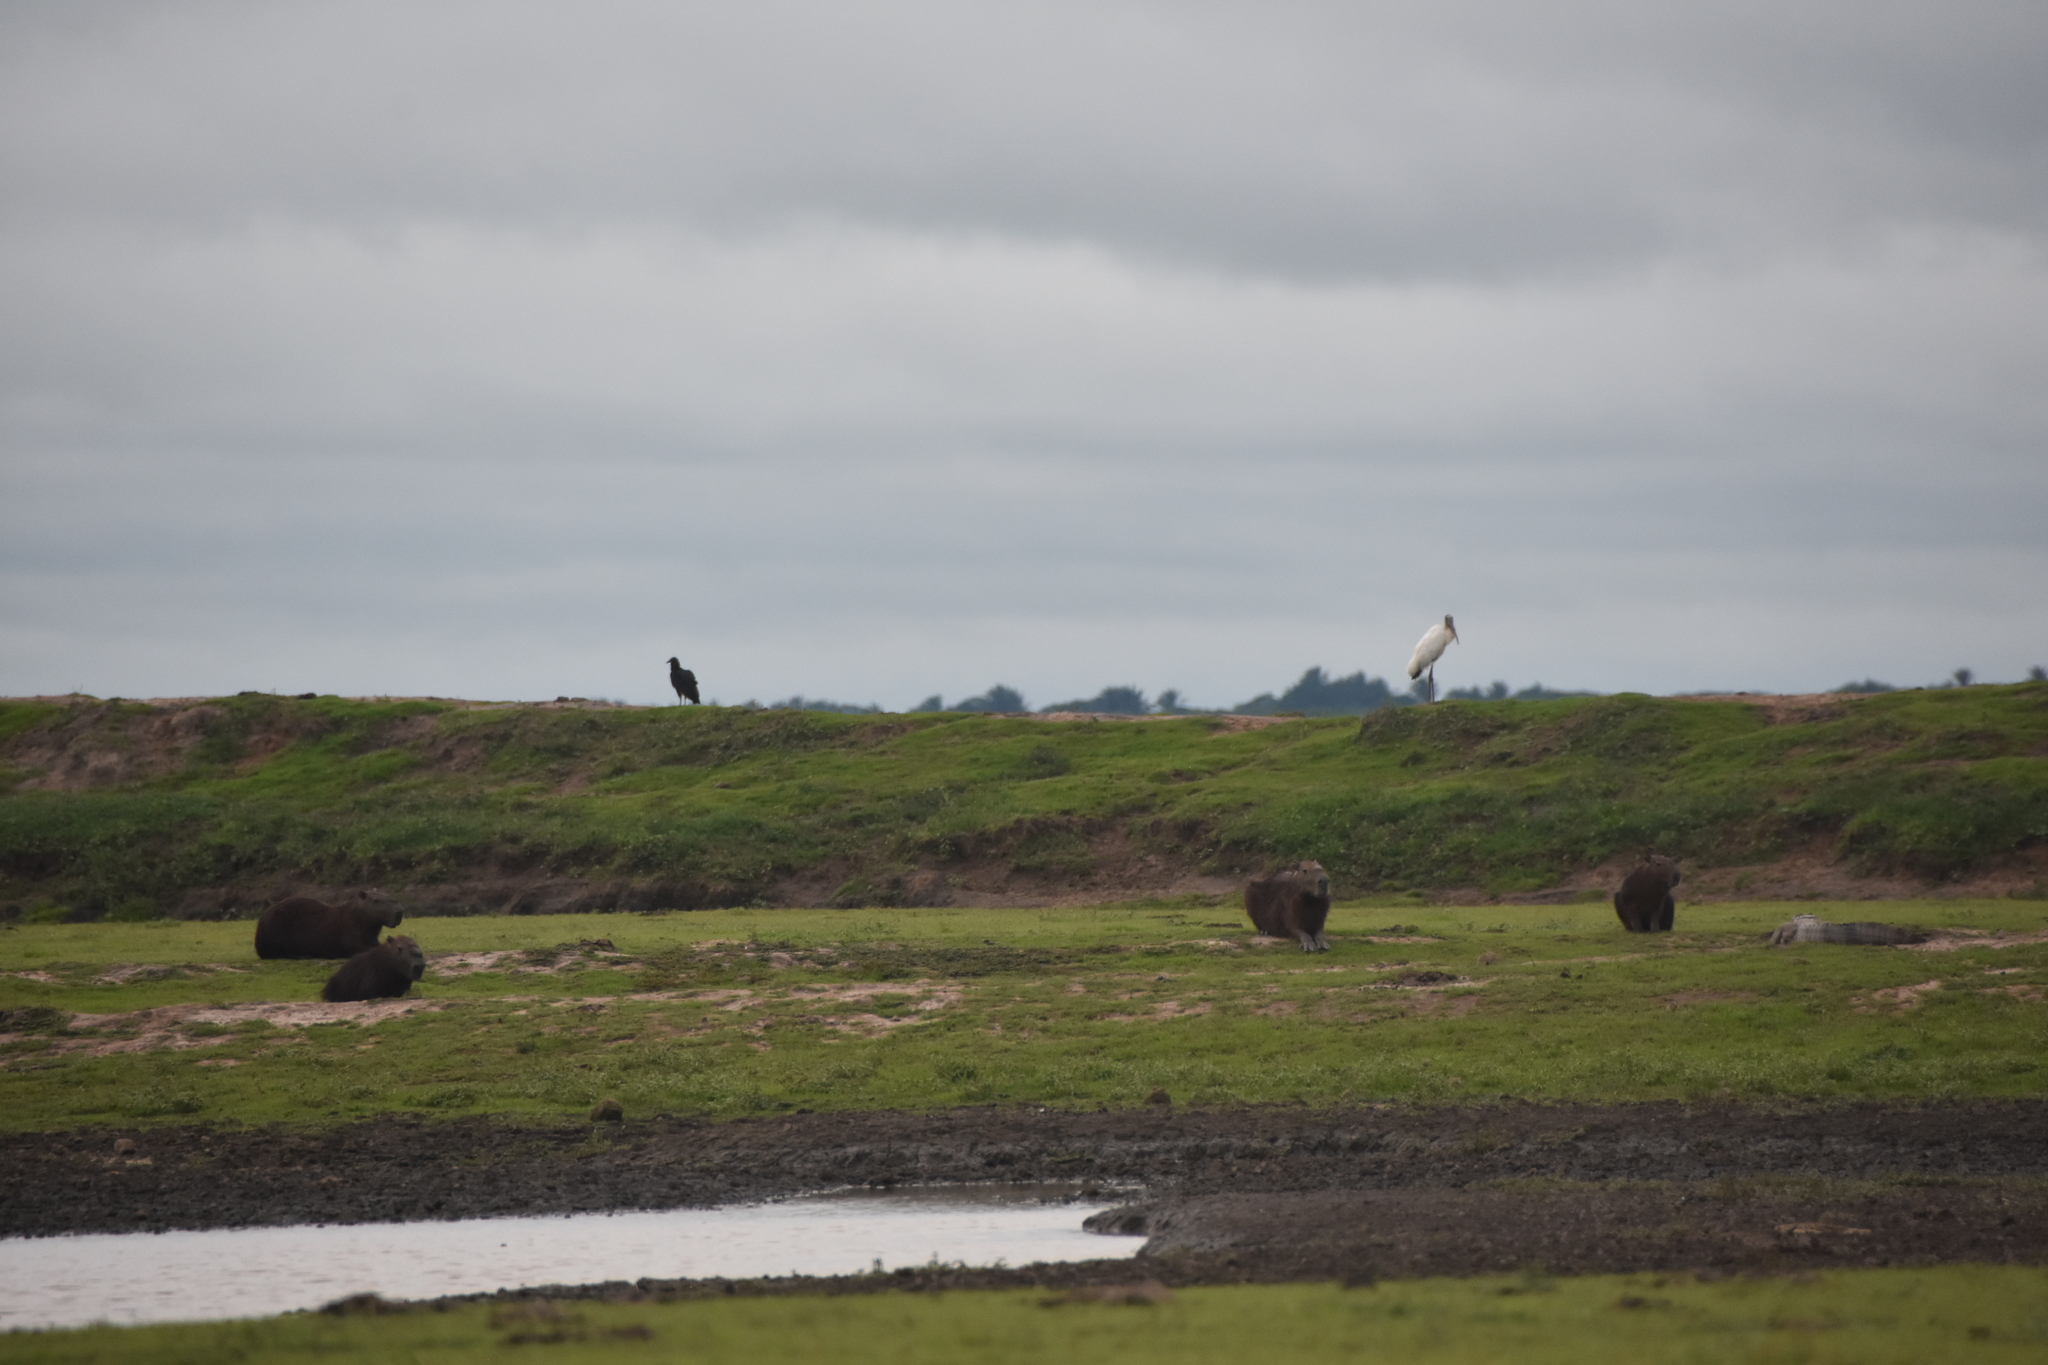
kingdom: Animalia
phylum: Chordata
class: Mammalia
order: Rodentia
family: Caviidae
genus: Hydrochoerus
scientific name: Hydrochoerus hydrochaeris
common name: Capybara
